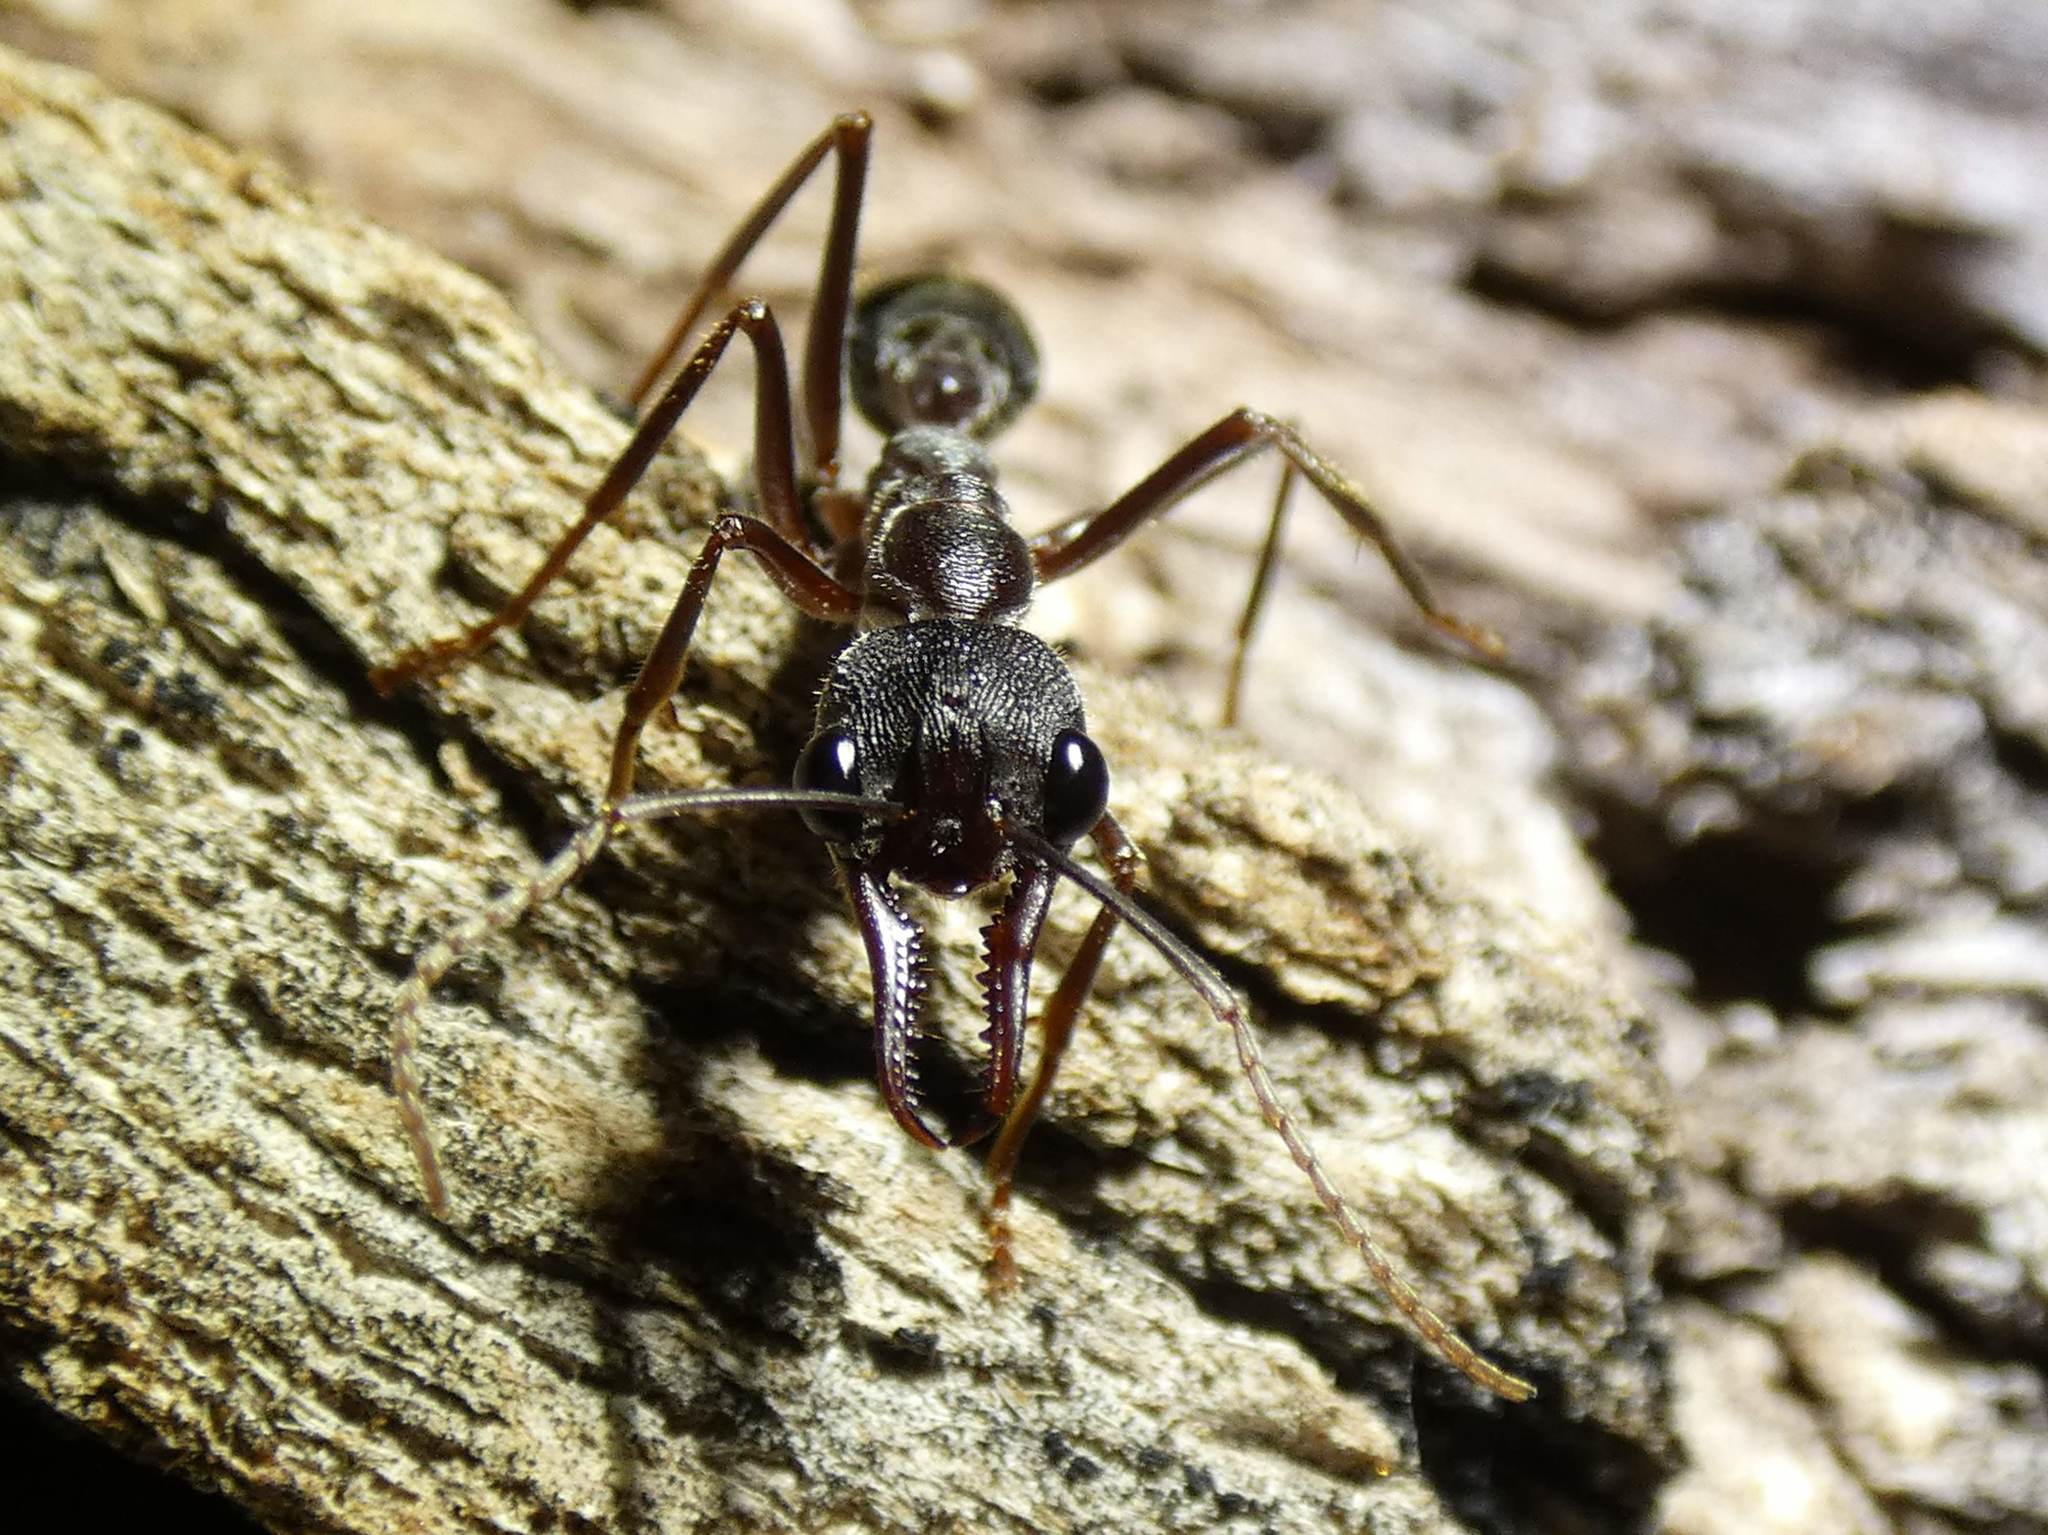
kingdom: Animalia
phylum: Arthropoda
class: Insecta
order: Hymenoptera
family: Formicidae
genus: Myrmecia
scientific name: Myrmecia pyriformis
